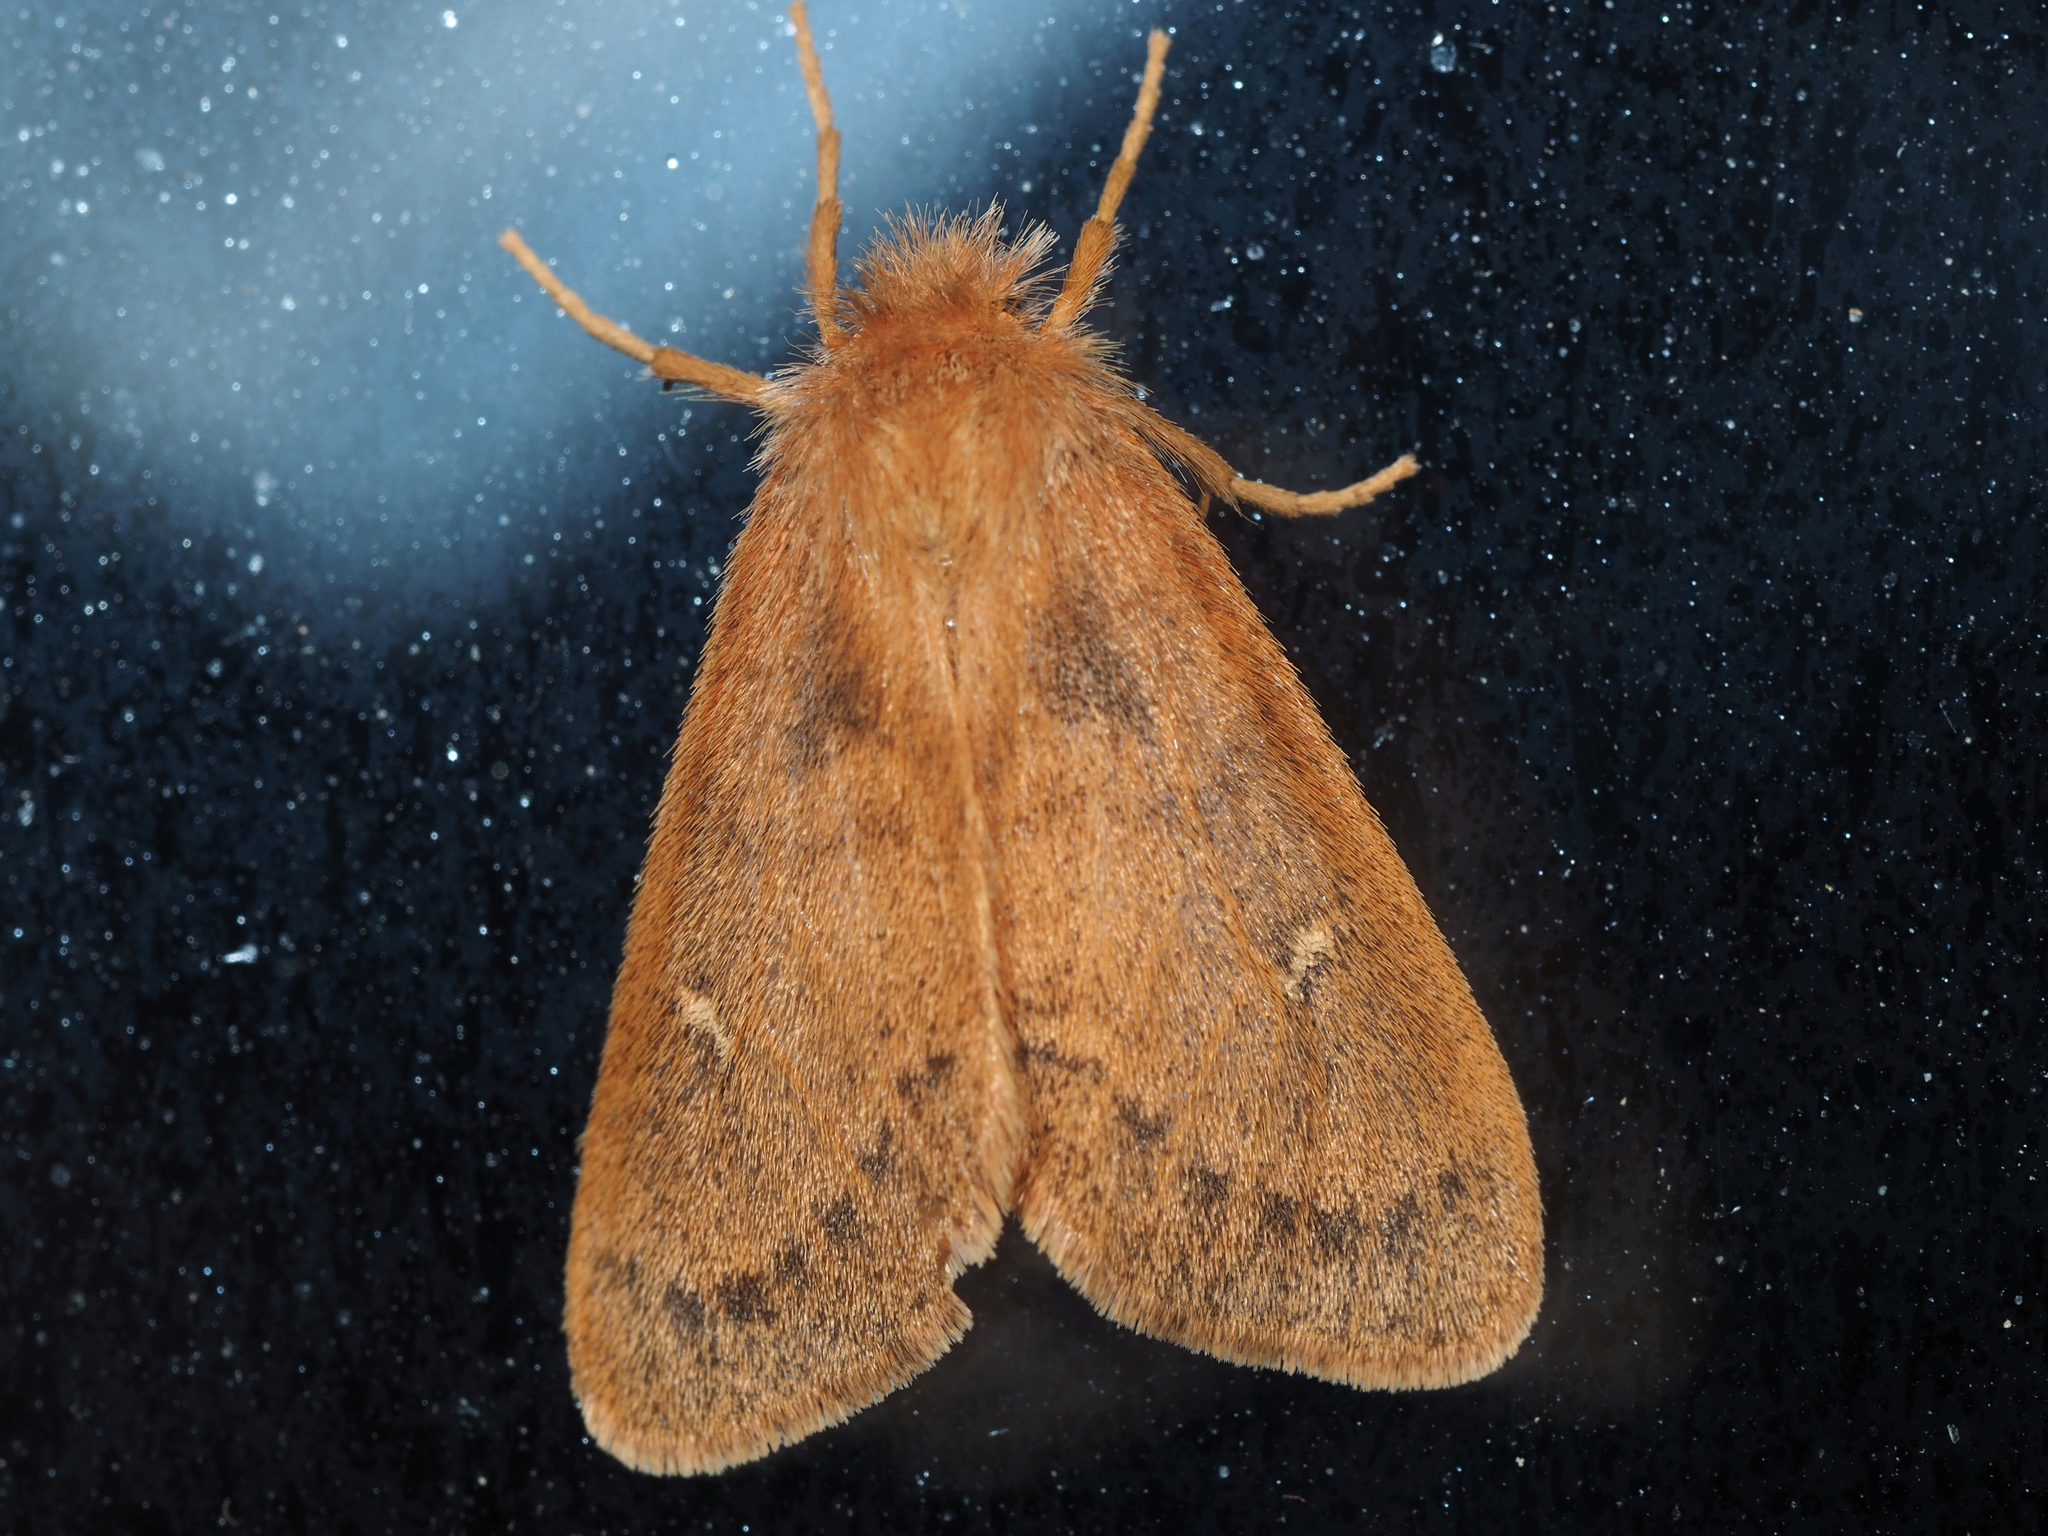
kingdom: Animalia
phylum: Arthropoda
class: Insecta
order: Lepidoptera
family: Erebidae
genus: Ocneria
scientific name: Ocneria rubea
